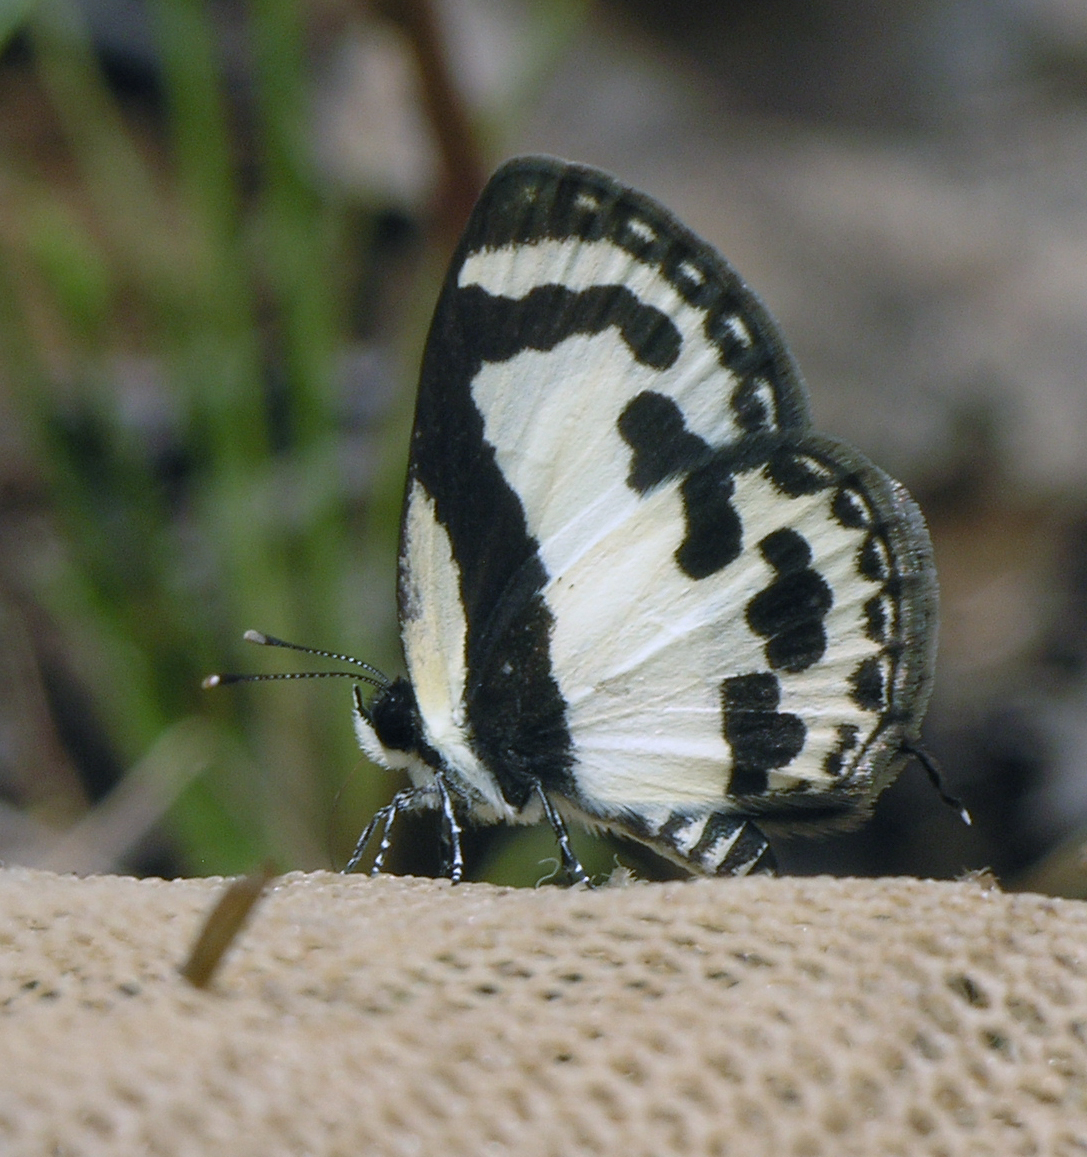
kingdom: Animalia
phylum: Arthropoda
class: Insecta
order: Lepidoptera
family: Lycaenidae
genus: Caleta
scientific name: Caleta roxus
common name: Straight pierrot
